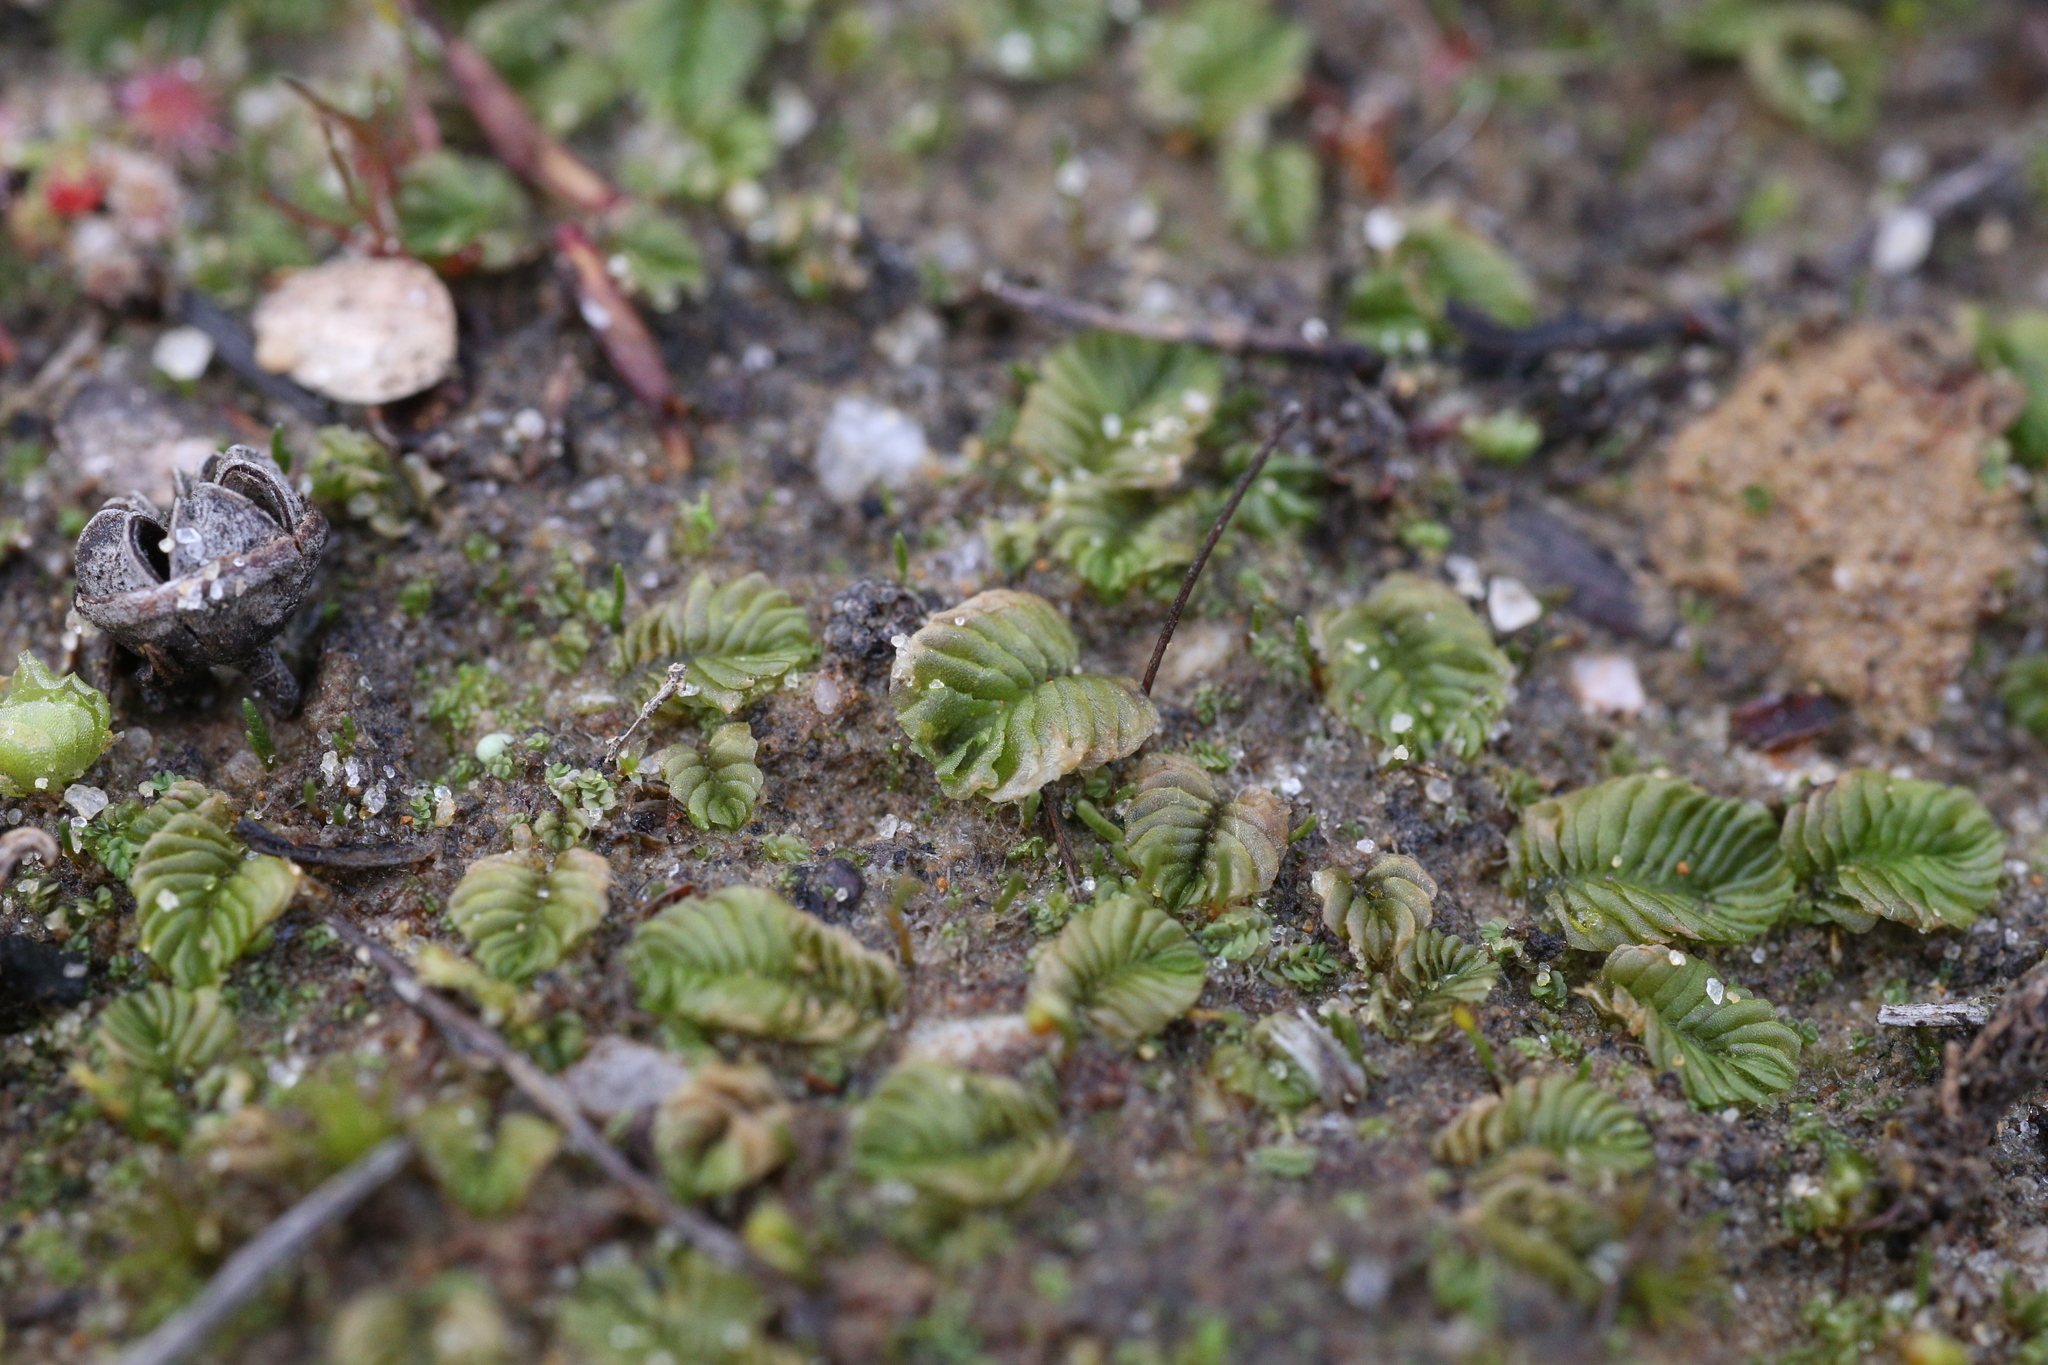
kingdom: Plantae
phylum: Marchantiophyta
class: Jungermanniopsida
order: Jungermanniales
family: Acrobolbaceae
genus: Lethocolea
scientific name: Lethocolea pansa
